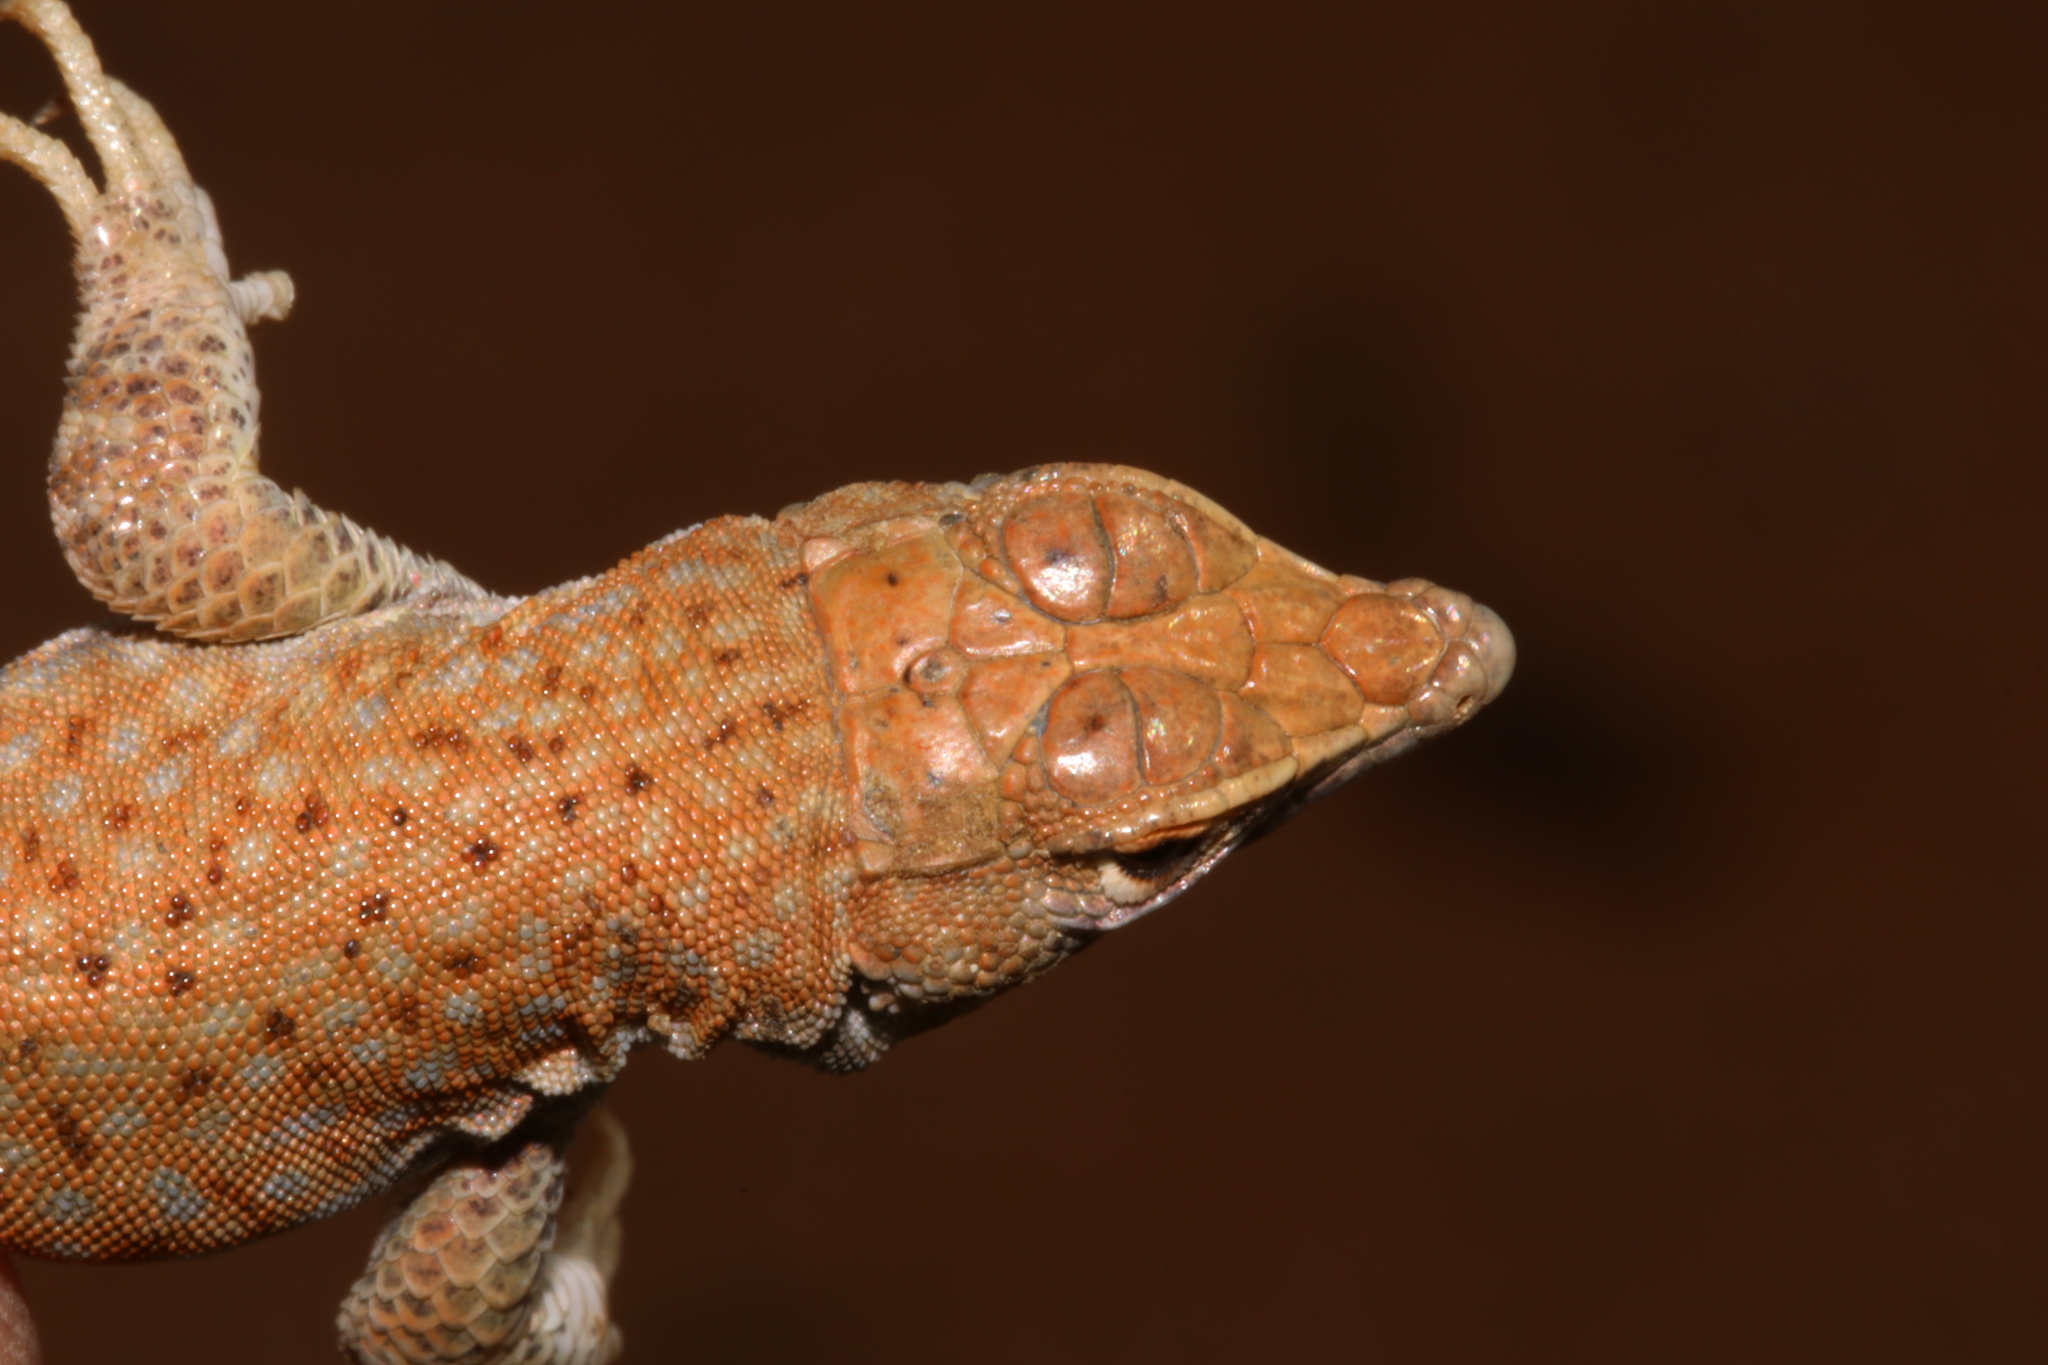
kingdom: Animalia
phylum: Chordata
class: Squamata
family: Lacertidae
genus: Acanthodactylus
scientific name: Acanthodactylus hardyi
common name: Hardy’s fringe-fingered lizard
